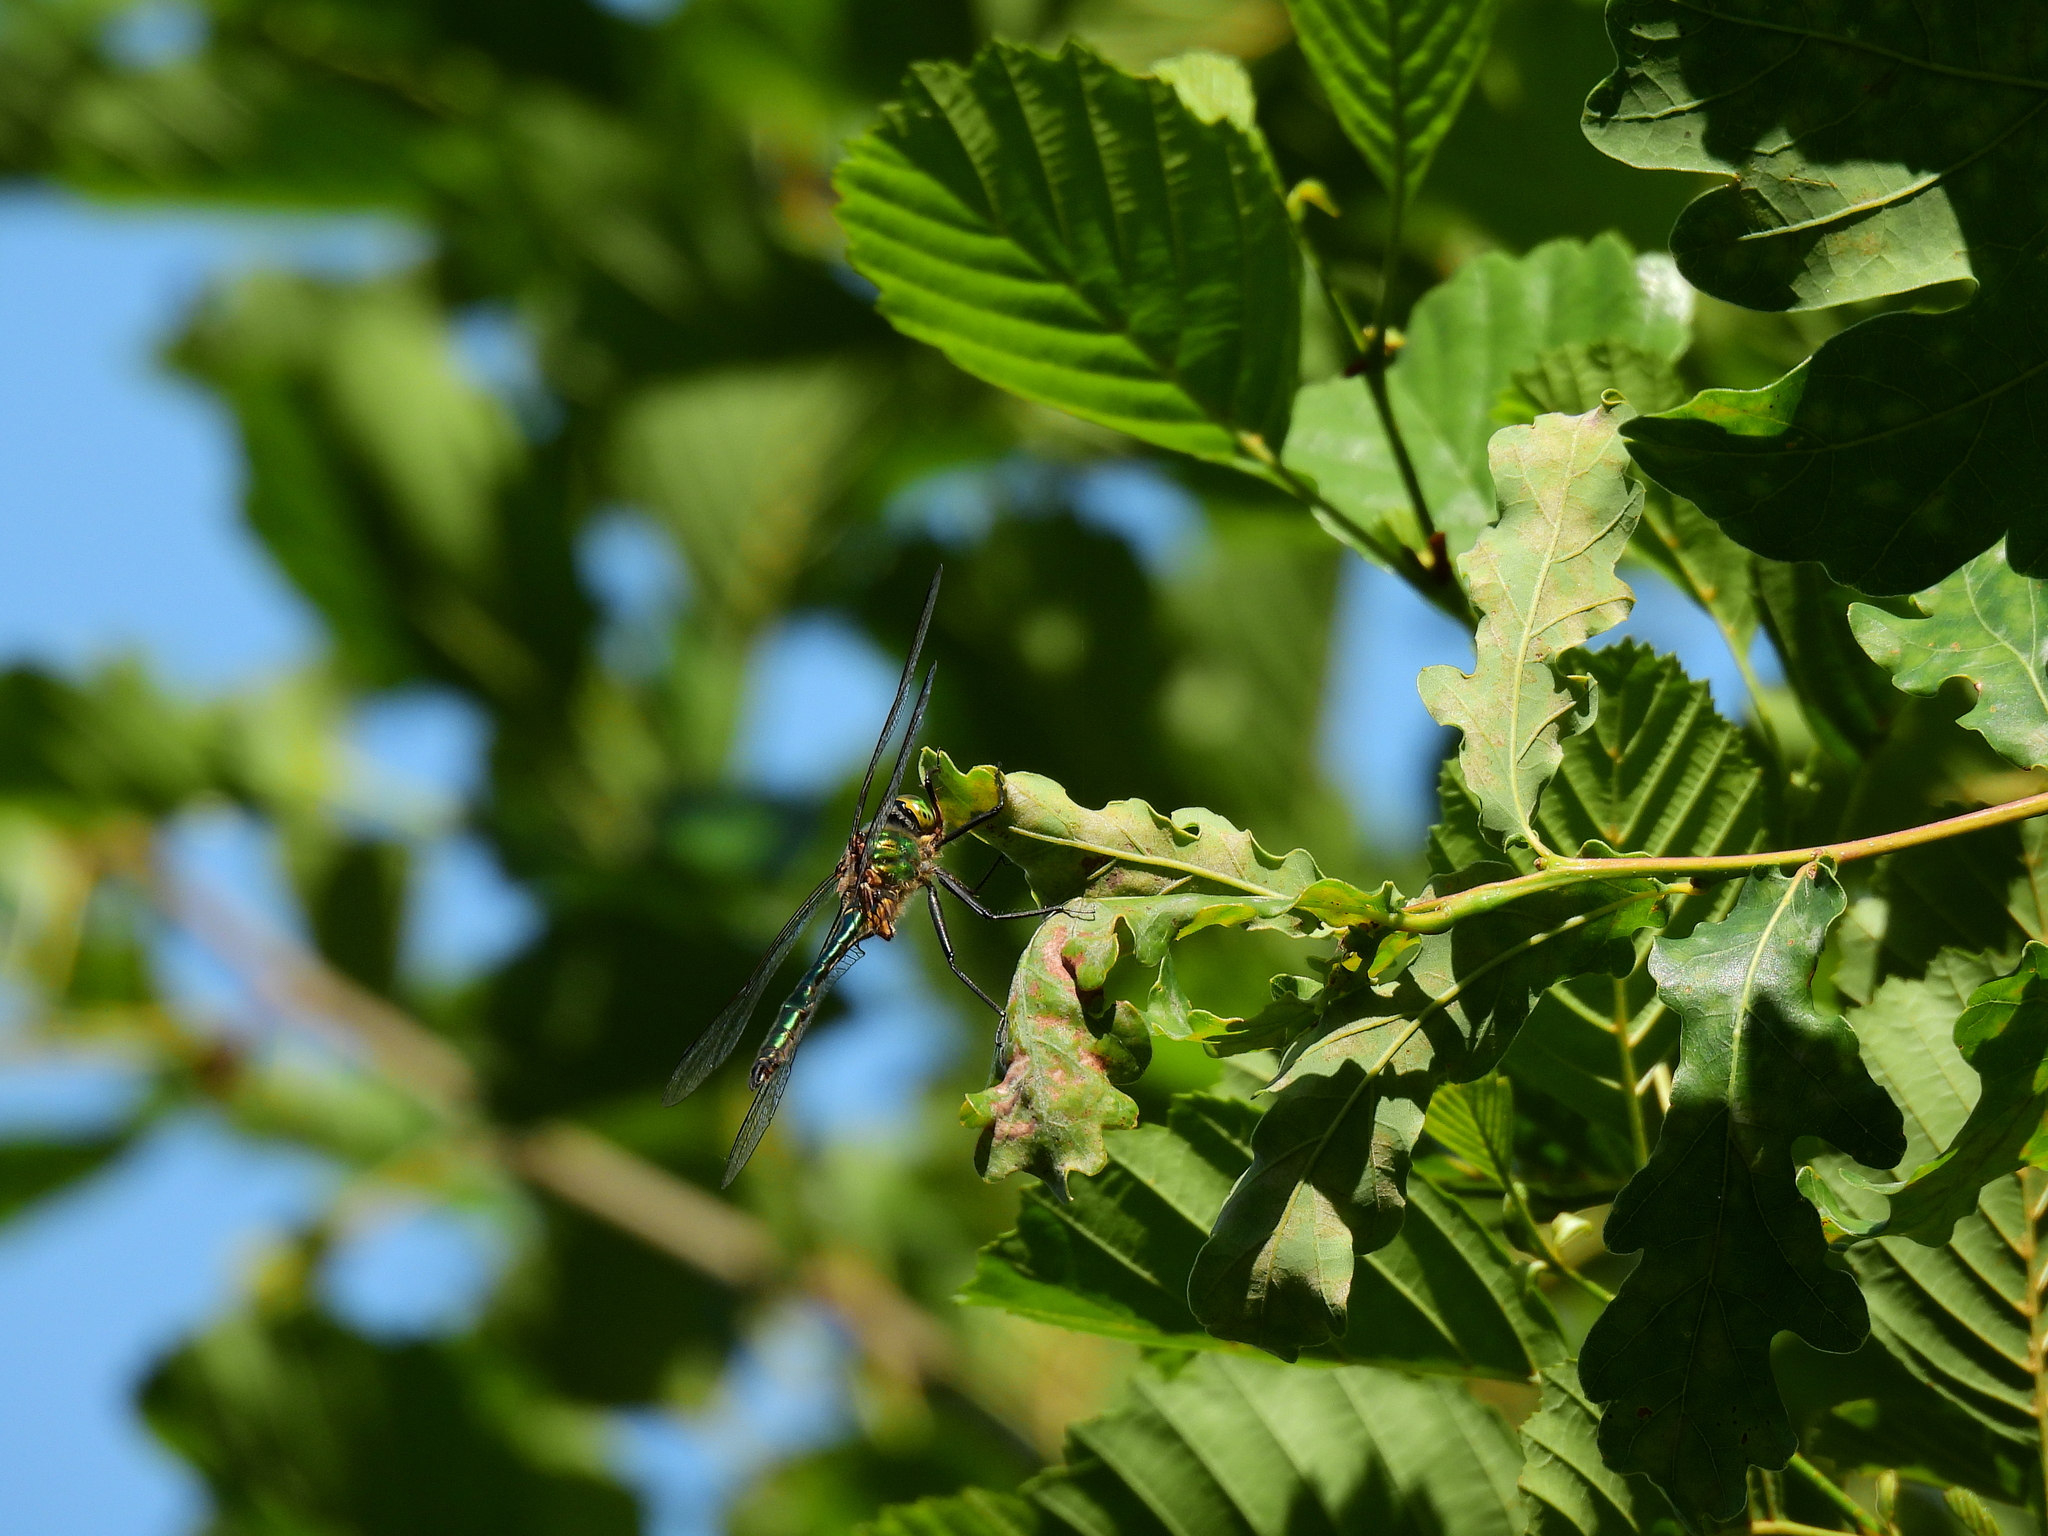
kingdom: Animalia
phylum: Arthropoda
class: Insecta
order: Odonata
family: Corduliidae
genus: Somatochlora
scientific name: Somatochlora metallica
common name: Brilliant emerald
